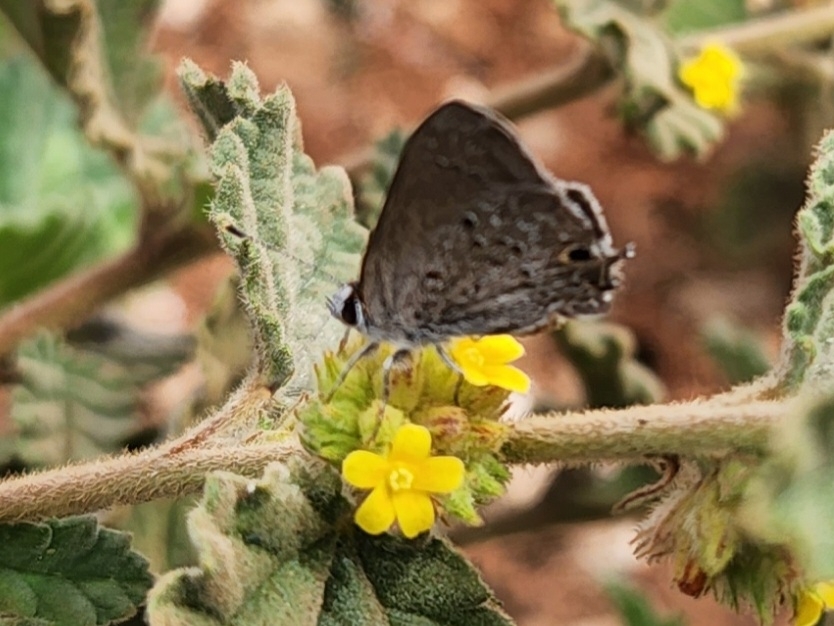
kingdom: Animalia
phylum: Arthropoda
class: Insecta
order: Lepidoptera
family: Lycaenidae
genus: Callicista
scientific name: Callicista columella
